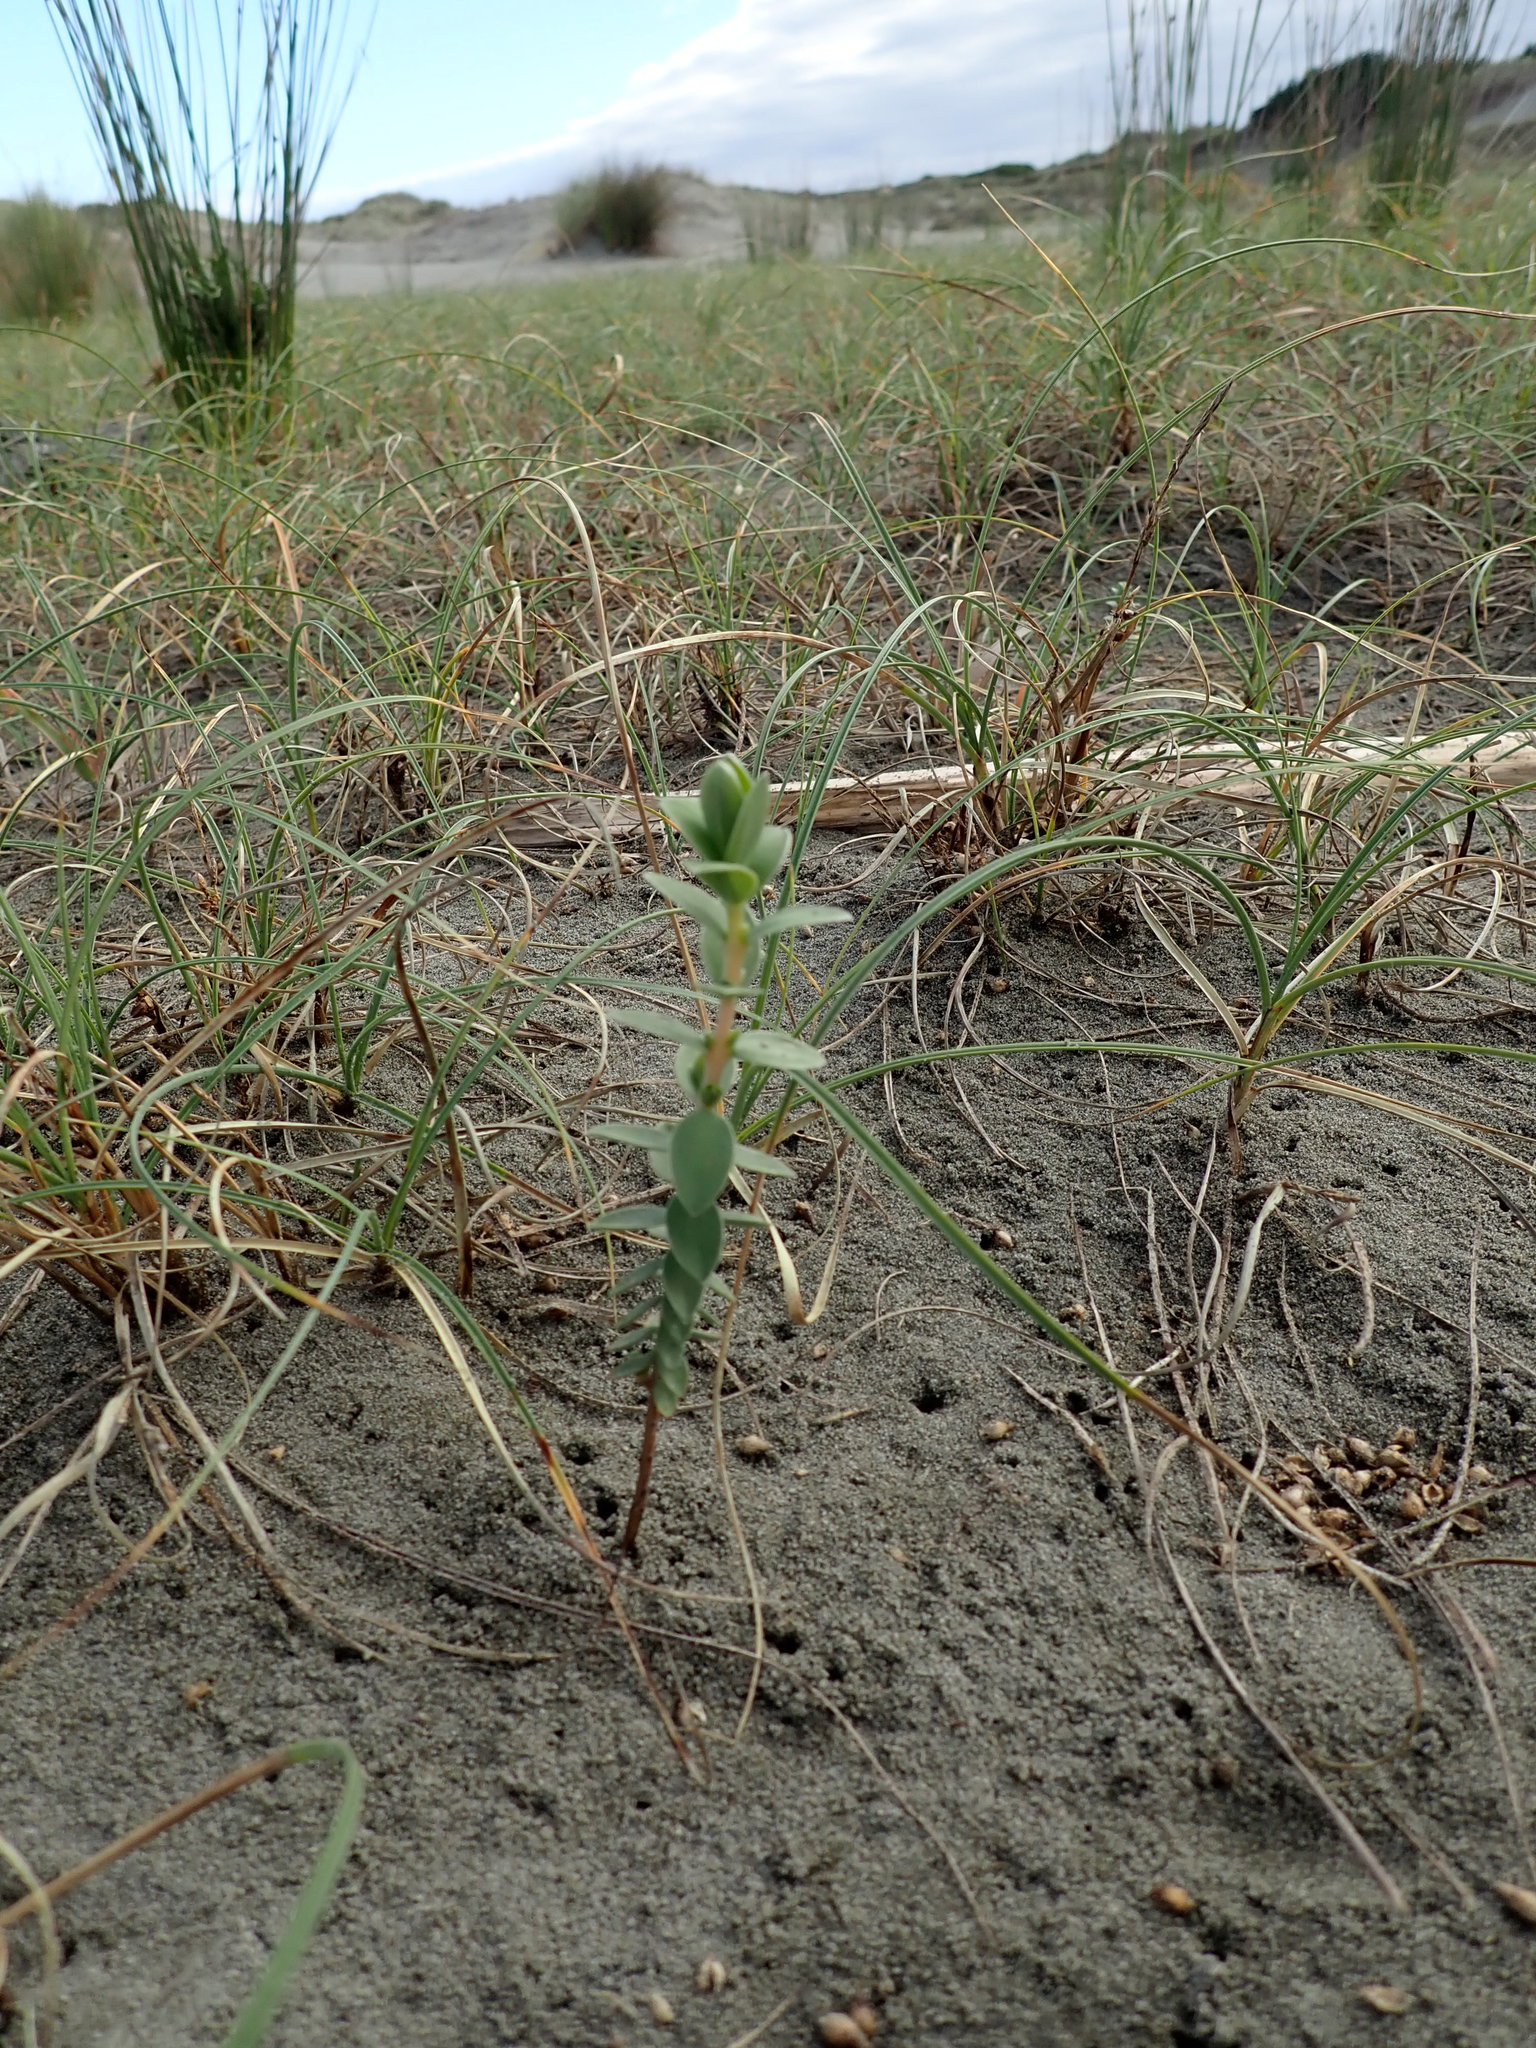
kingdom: Plantae
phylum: Tracheophyta
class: Magnoliopsida
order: Malvales
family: Thymelaeaceae
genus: Pimelea
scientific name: Pimelea villosa
